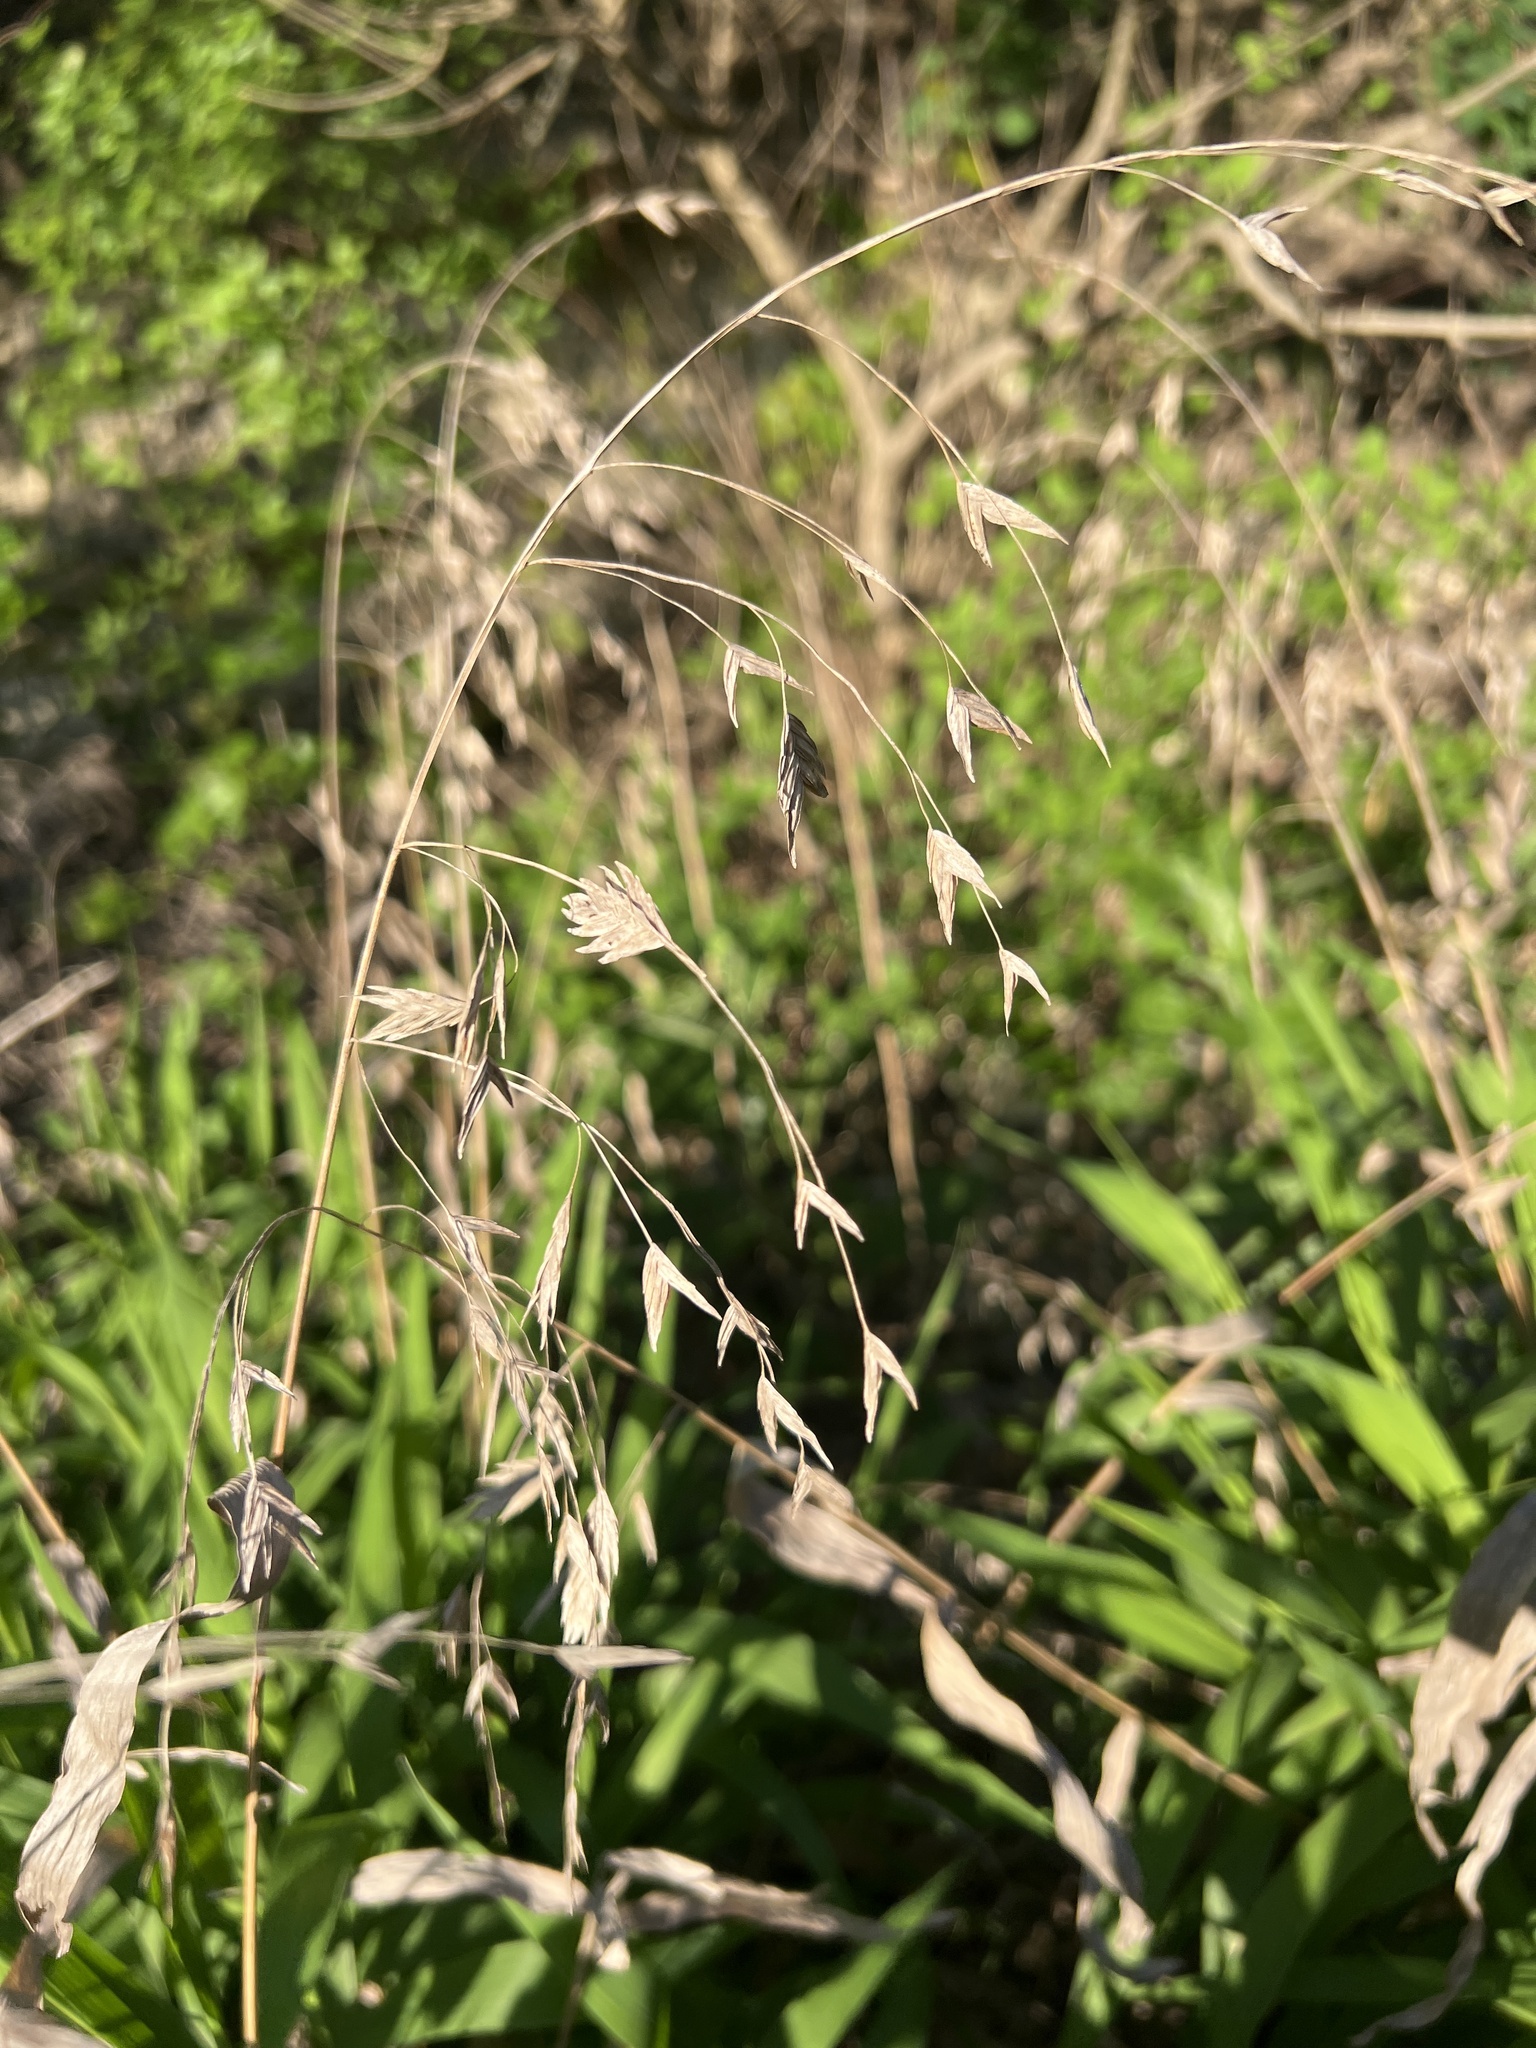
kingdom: Plantae
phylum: Tracheophyta
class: Liliopsida
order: Poales
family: Poaceae
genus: Chasmanthium
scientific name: Chasmanthium latifolium
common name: Broad-leaved chasmanthium
